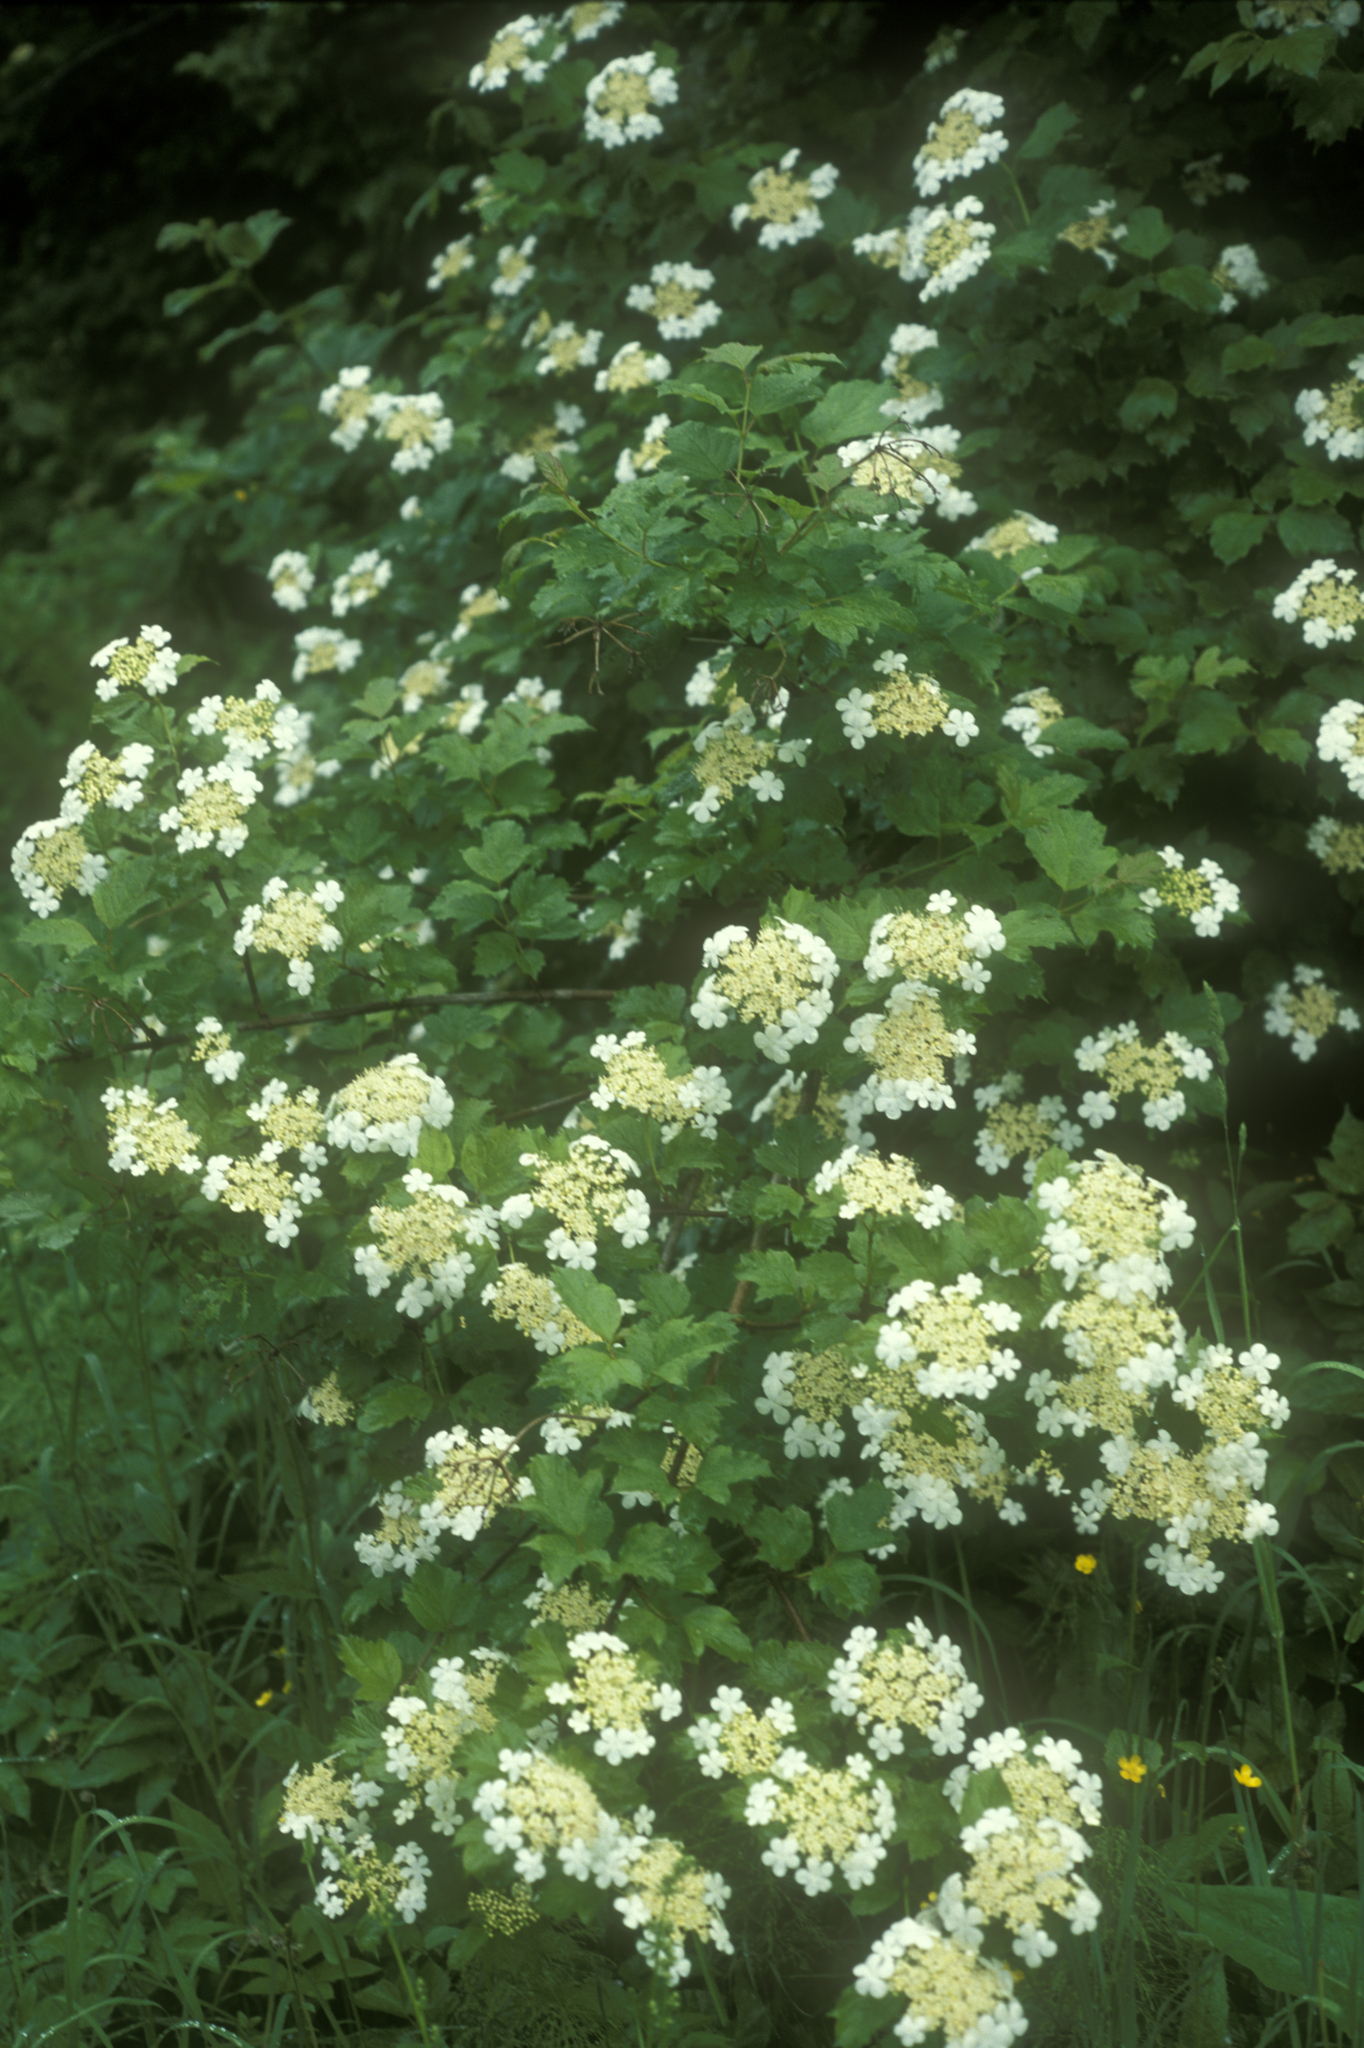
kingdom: Plantae
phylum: Tracheophyta
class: Magnoliopsida
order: Dipsacales
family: Viburnaceae
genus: Viburnum
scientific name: Viburnum opulus
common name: Guelder-rose
